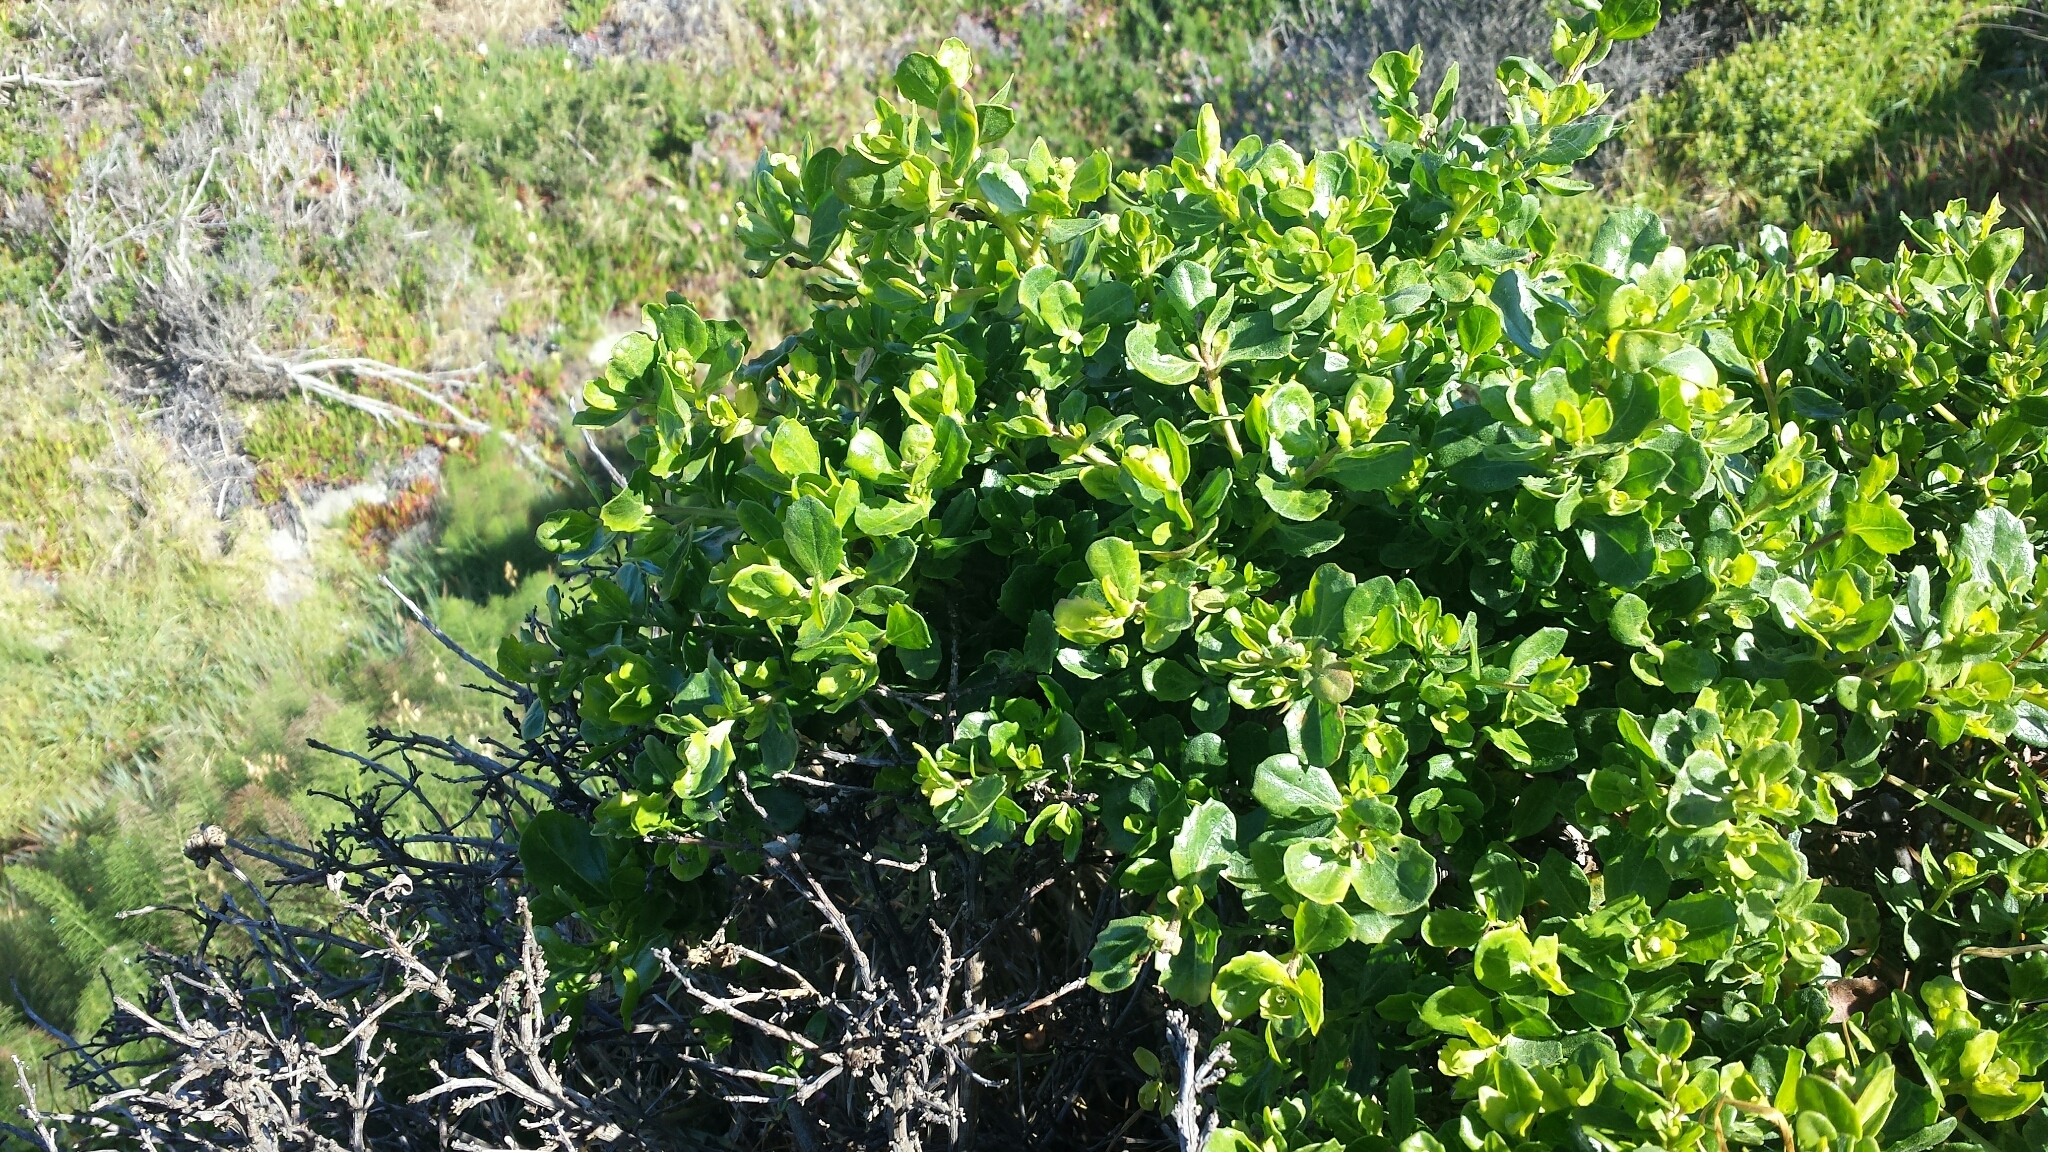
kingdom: Plantae
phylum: Tracheophyta
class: Magnoliopsida
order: Asterales
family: Asteraceae
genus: Baccharis
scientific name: Baccharis pilularis
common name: Coyotebrush
